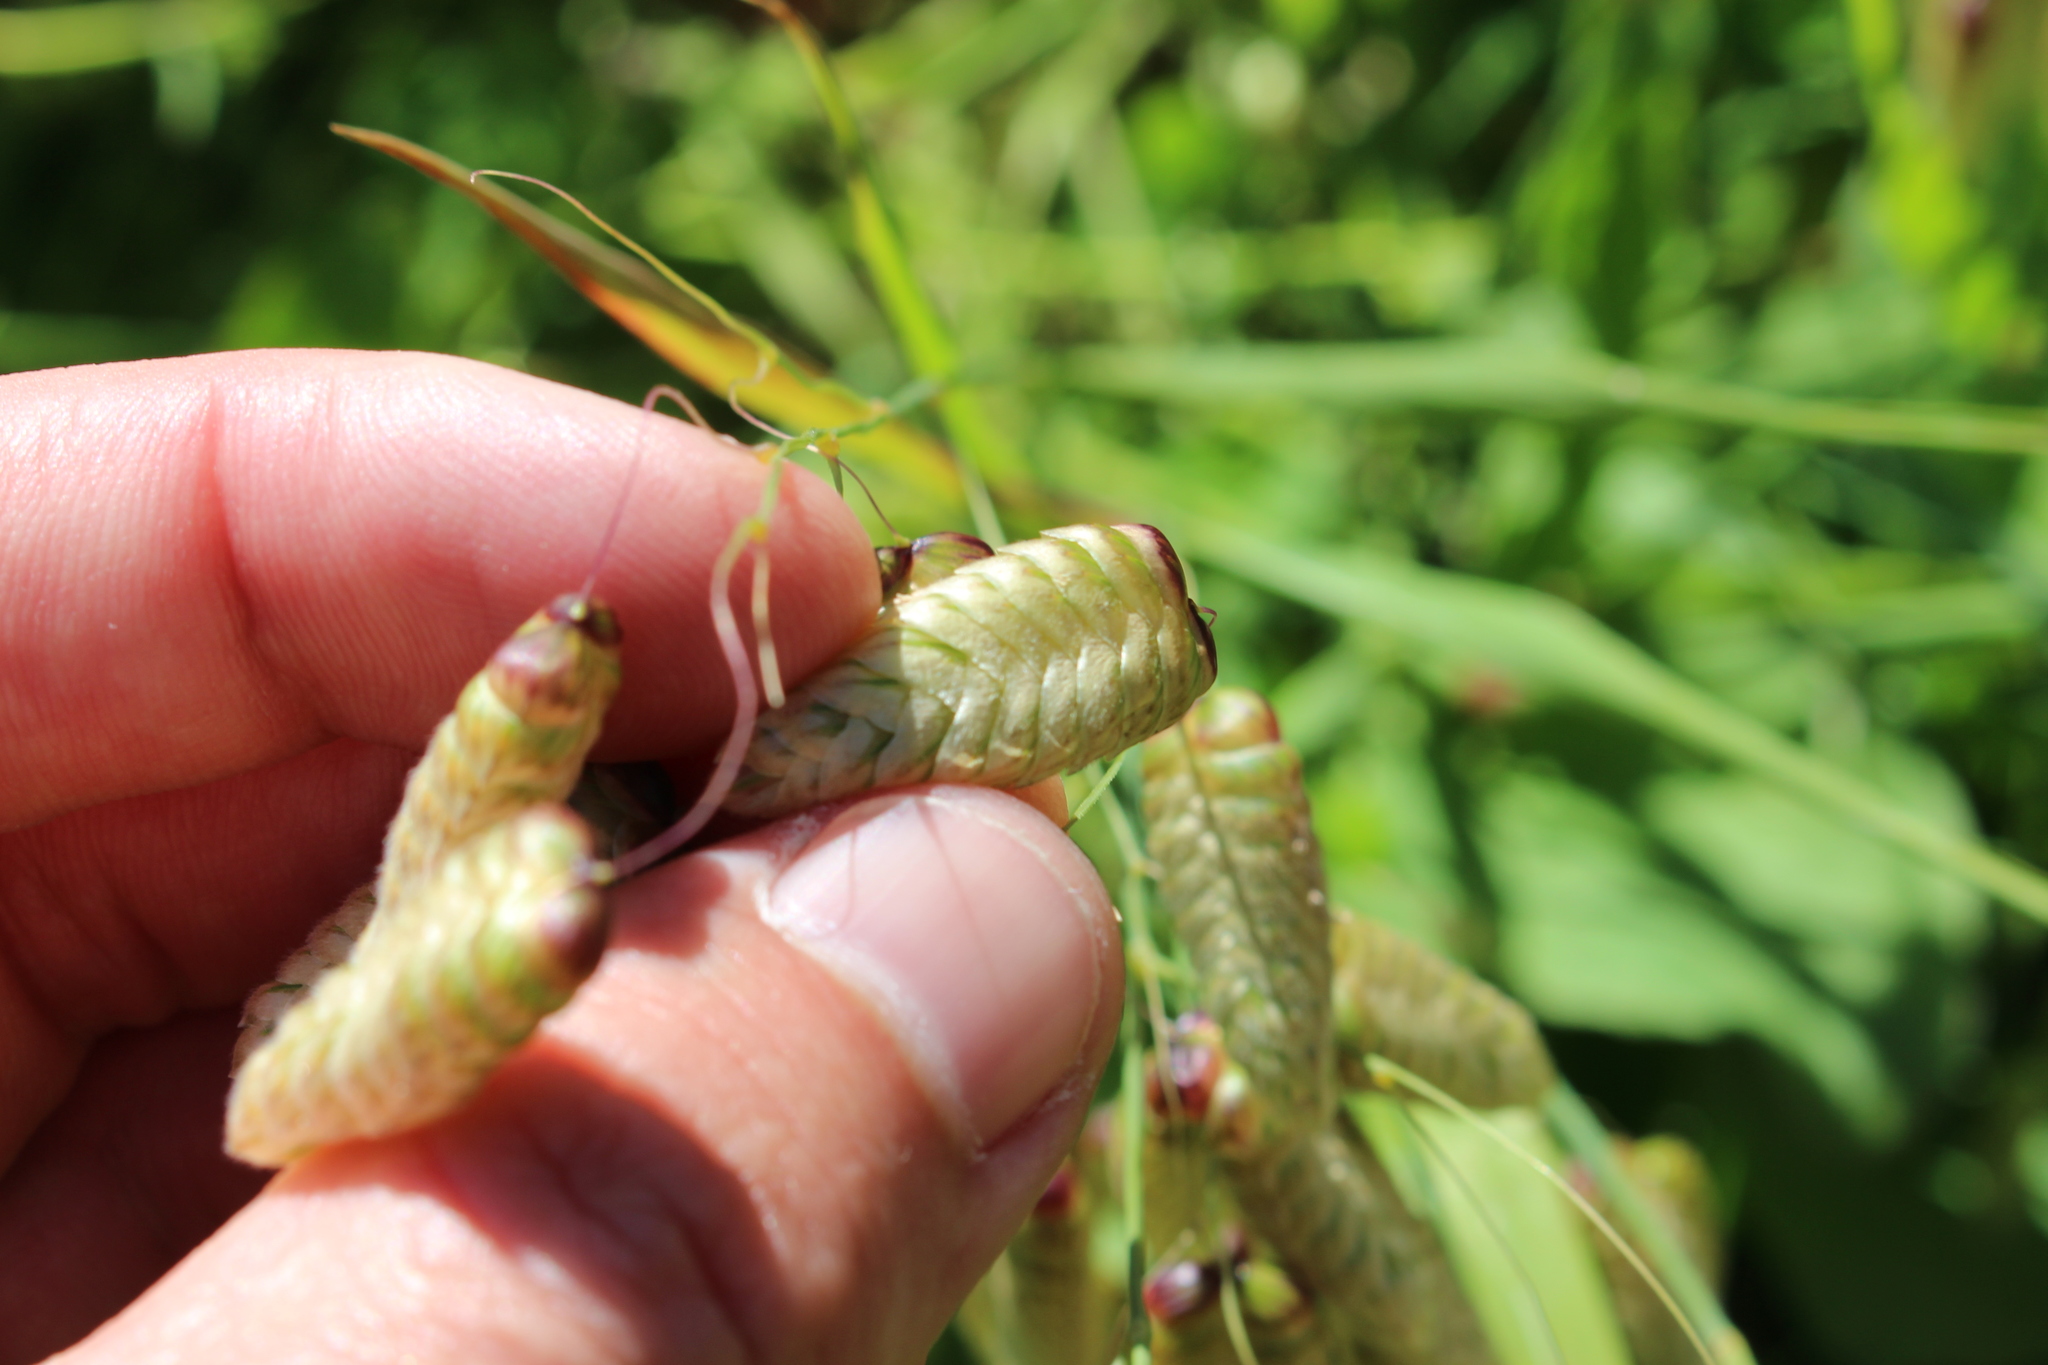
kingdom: Plantae
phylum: Tracheophyta
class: Liliopsida
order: Poales
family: Poaceae
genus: Briza
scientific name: Briza maxima
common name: Big quakinggrass
